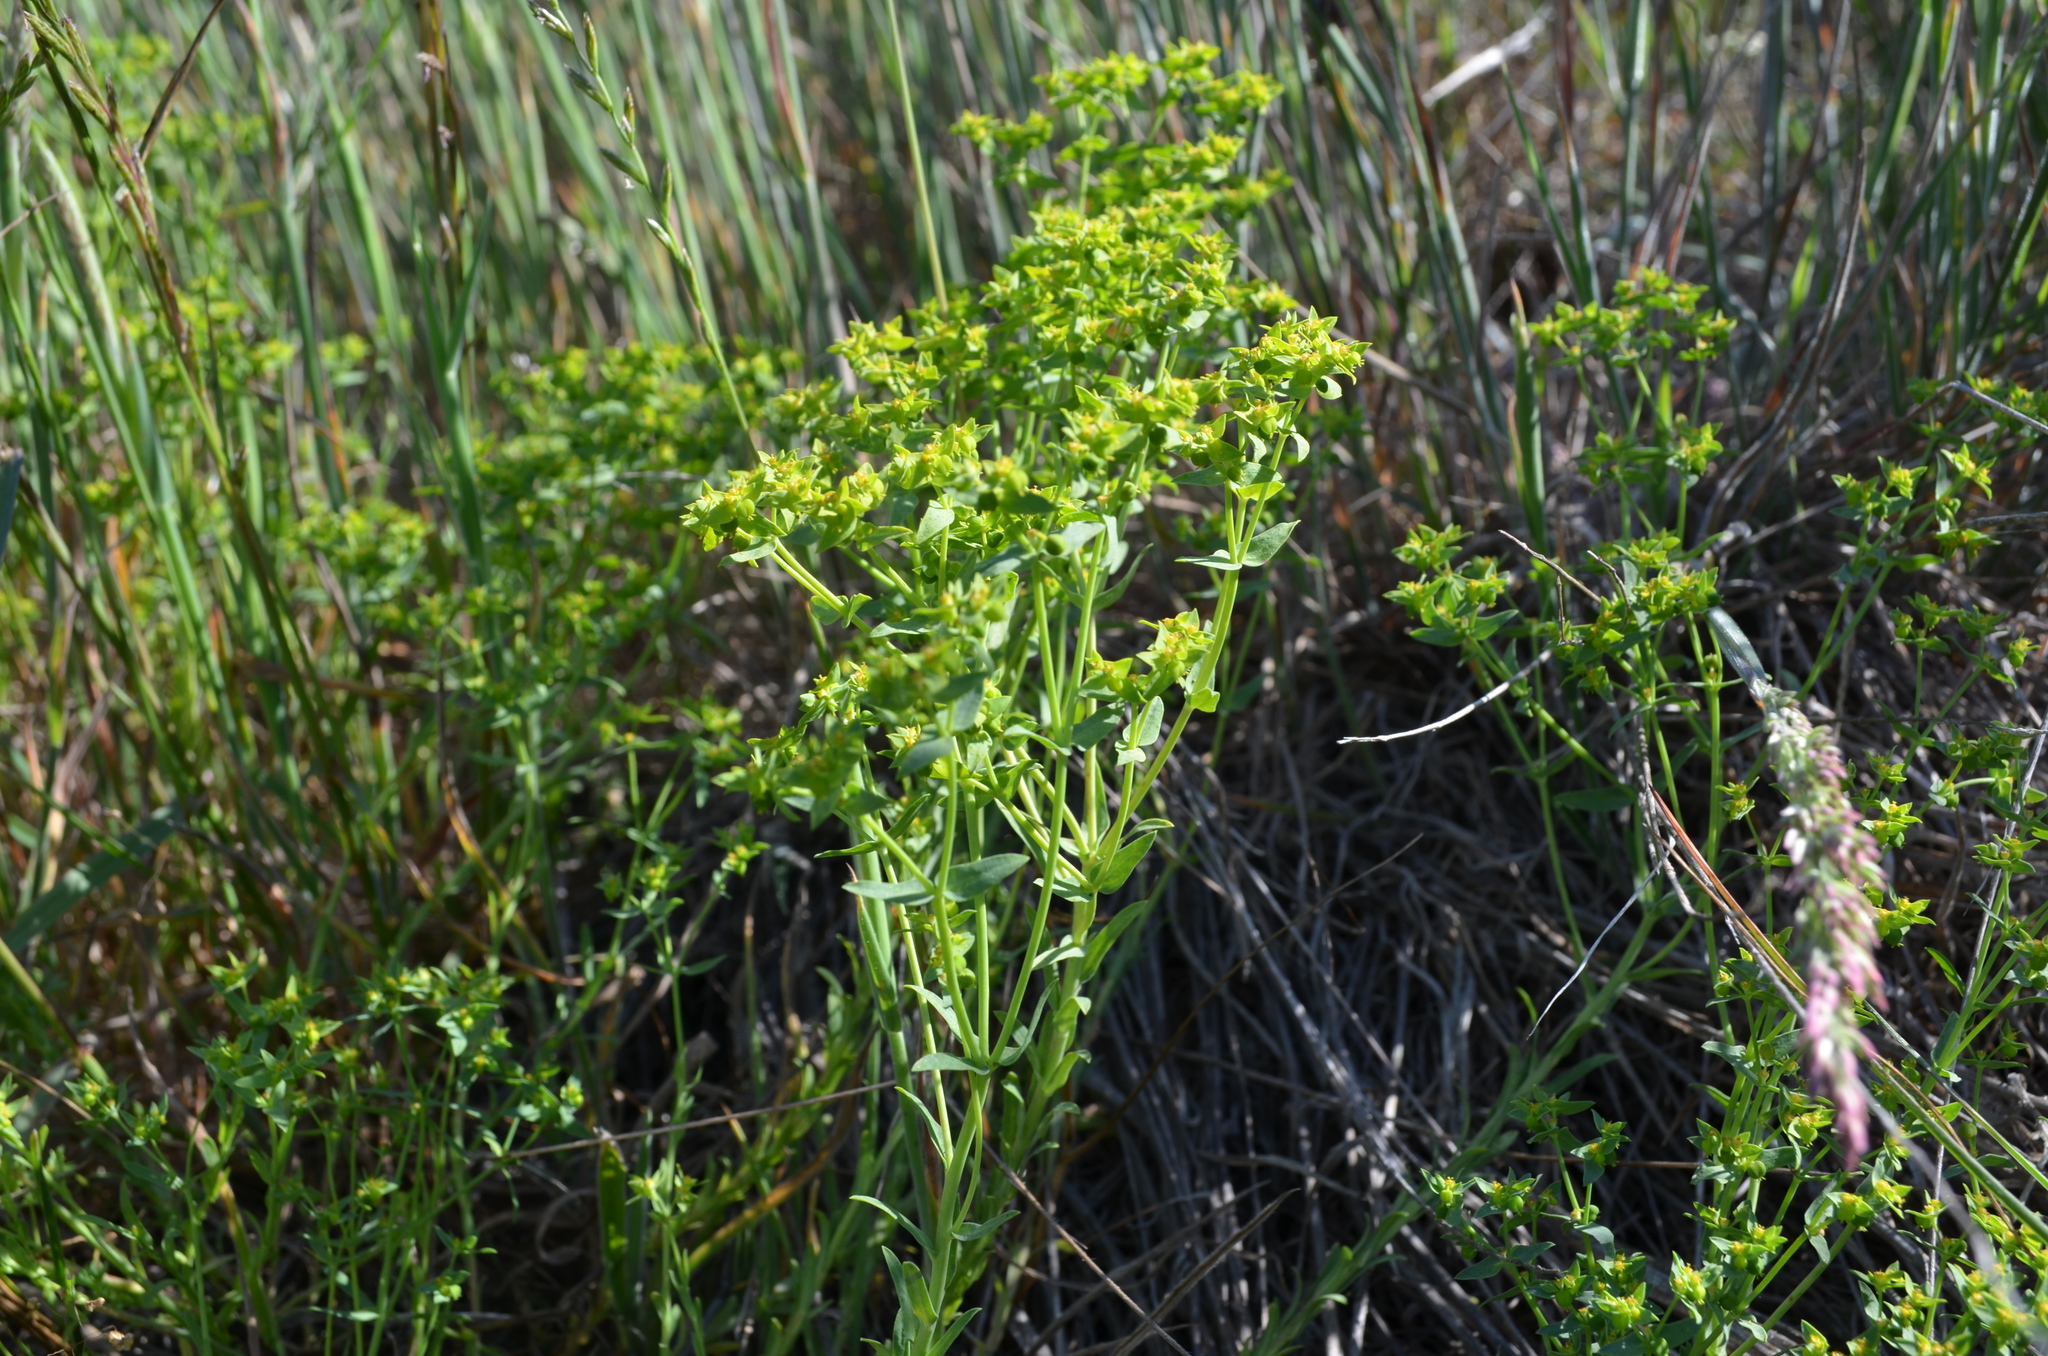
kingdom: Plantae
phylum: Tracheophyta
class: Magnoliopsida
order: Malpighiales
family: Euphorbiaceae
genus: Euphorbia
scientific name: Euphorbia exigua
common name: Dwarf spurge
